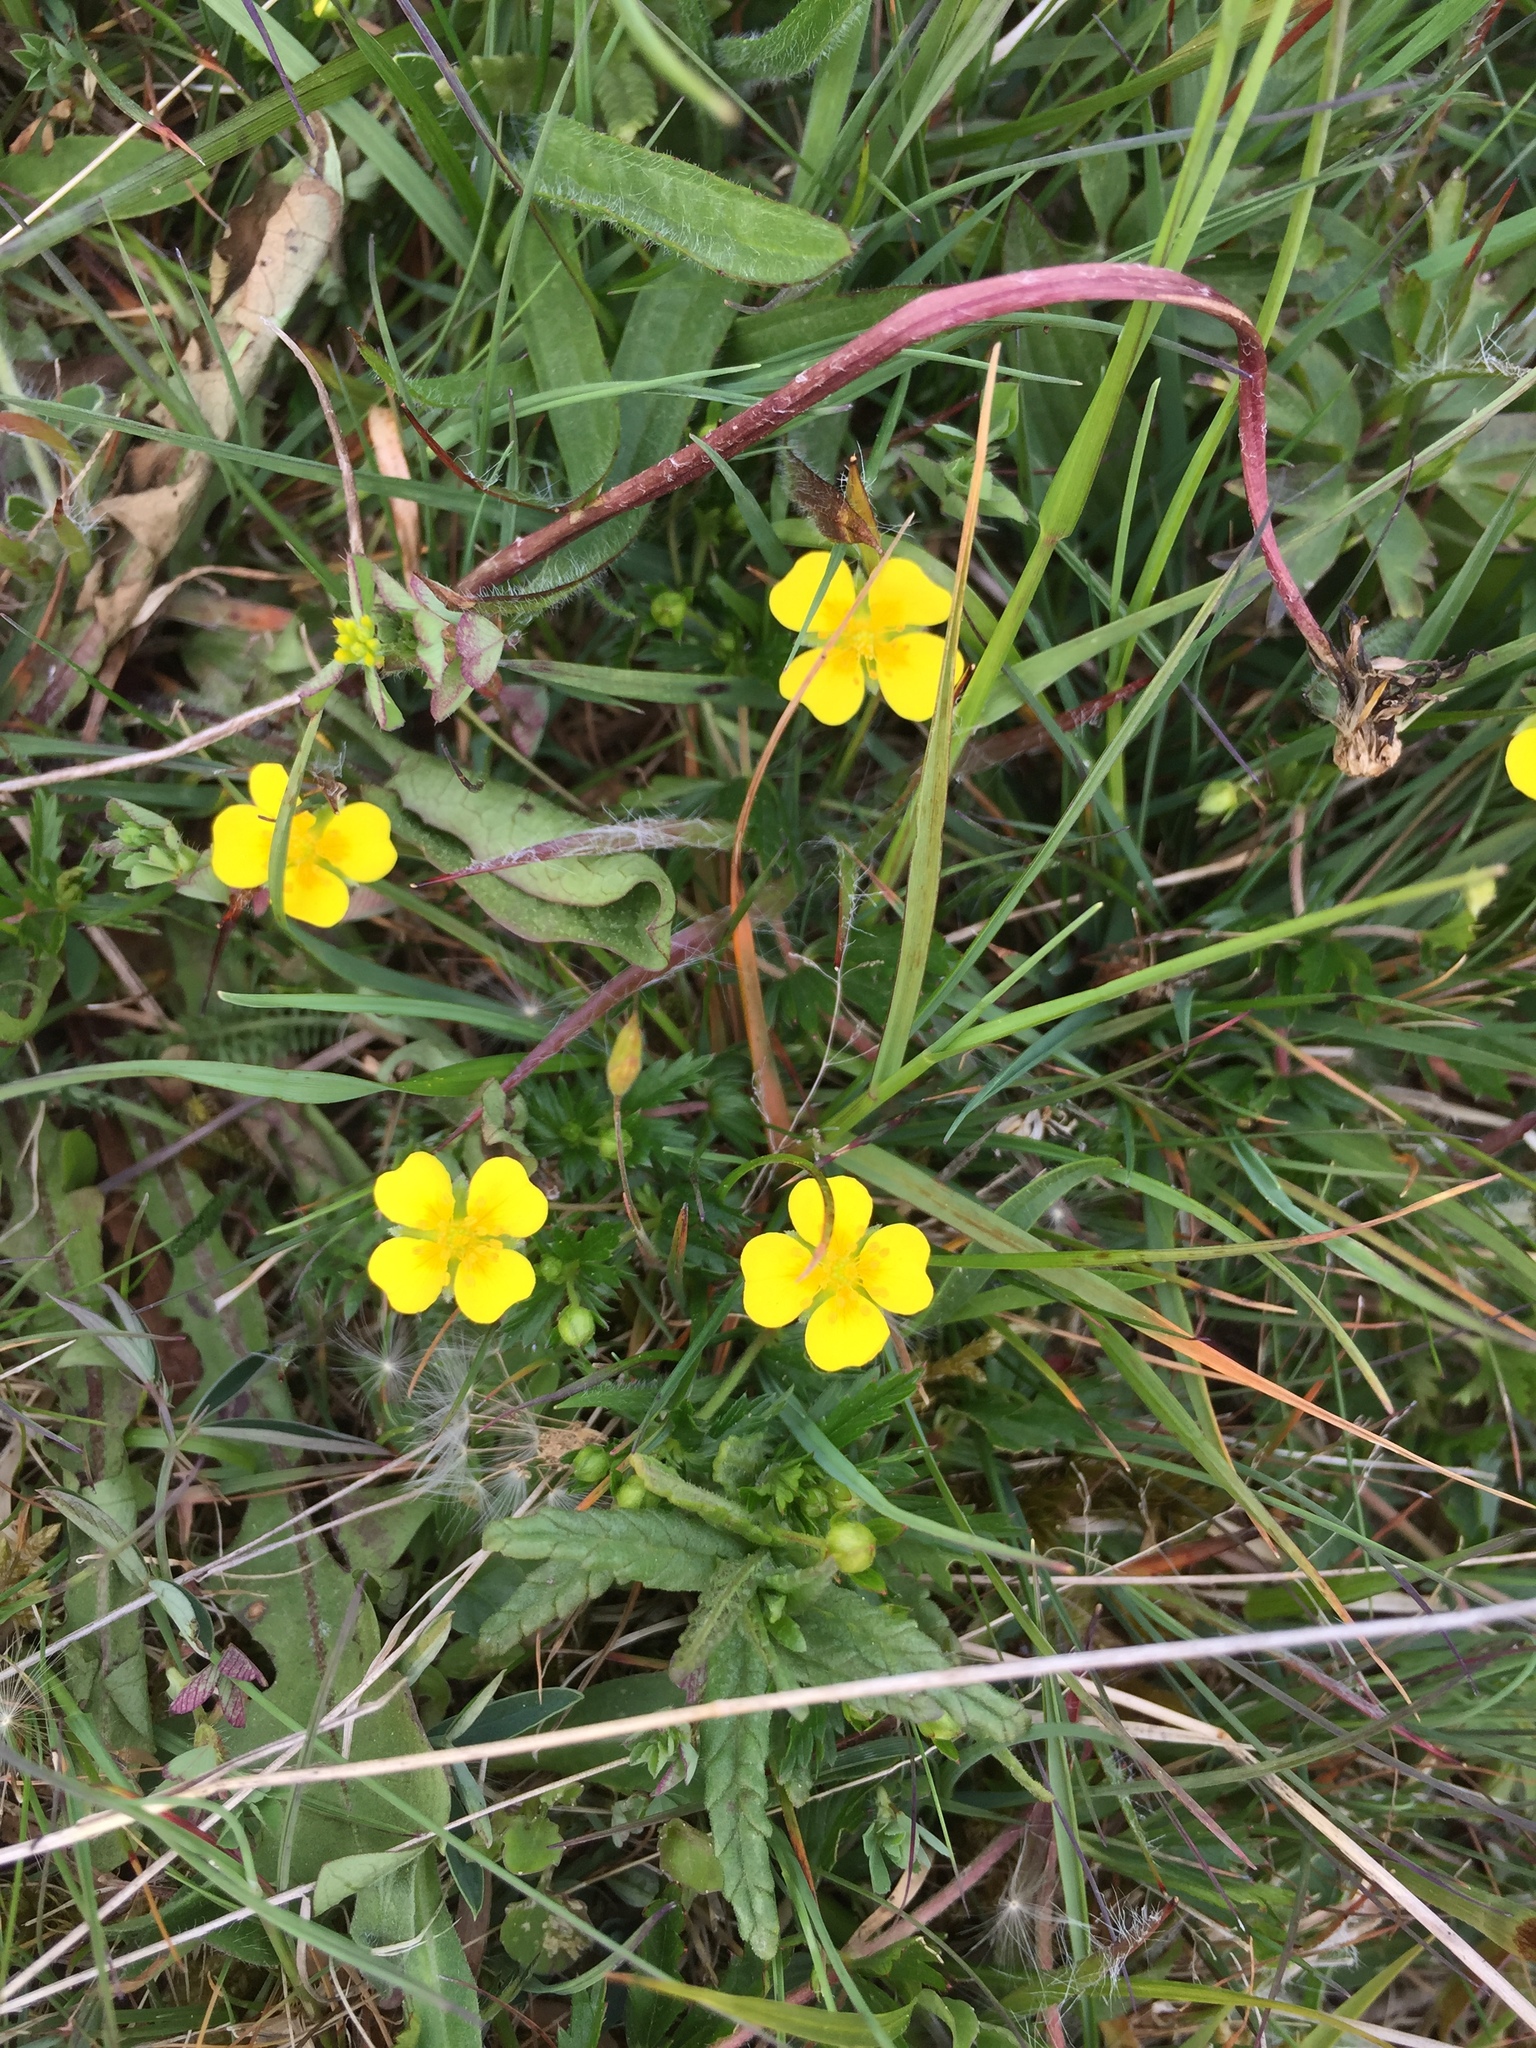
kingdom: Plantae
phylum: Tracheophyta
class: Magnoliopsida
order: Rosales
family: Rosaceae
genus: Potentilla
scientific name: Potentilla erecta
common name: Tormentil
